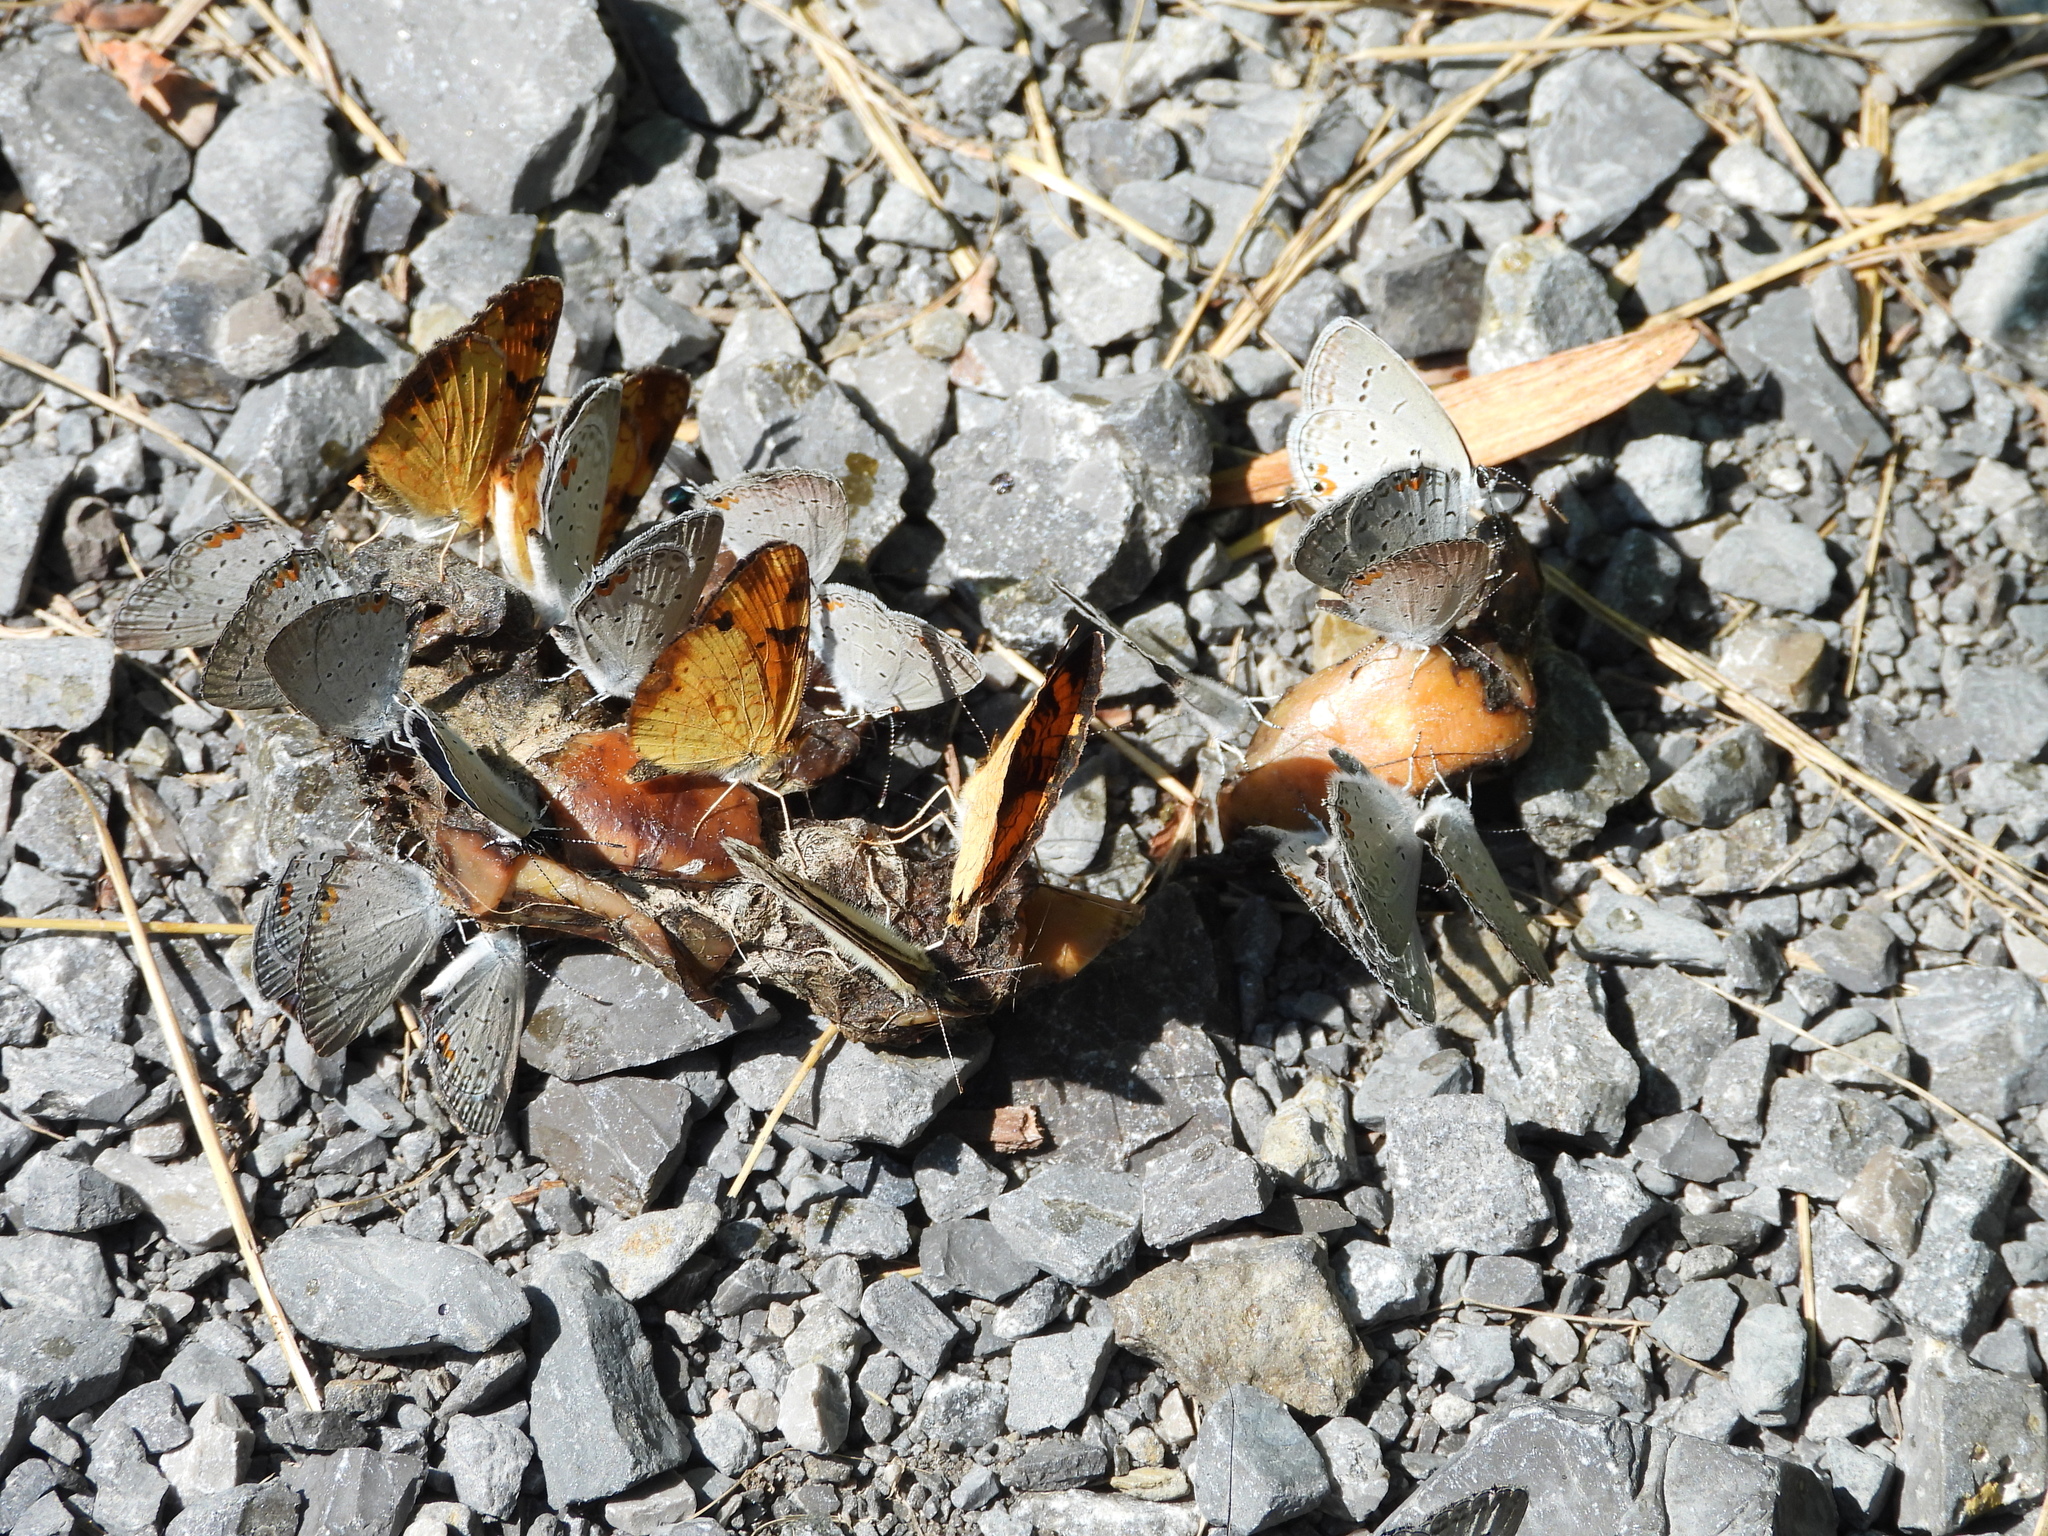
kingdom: Animalia
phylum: Arthropoda
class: Insecta
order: Lepidoptera
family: Nymphalidae
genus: Phyciodes
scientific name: Phyciodes tharos
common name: Pearl crescent
